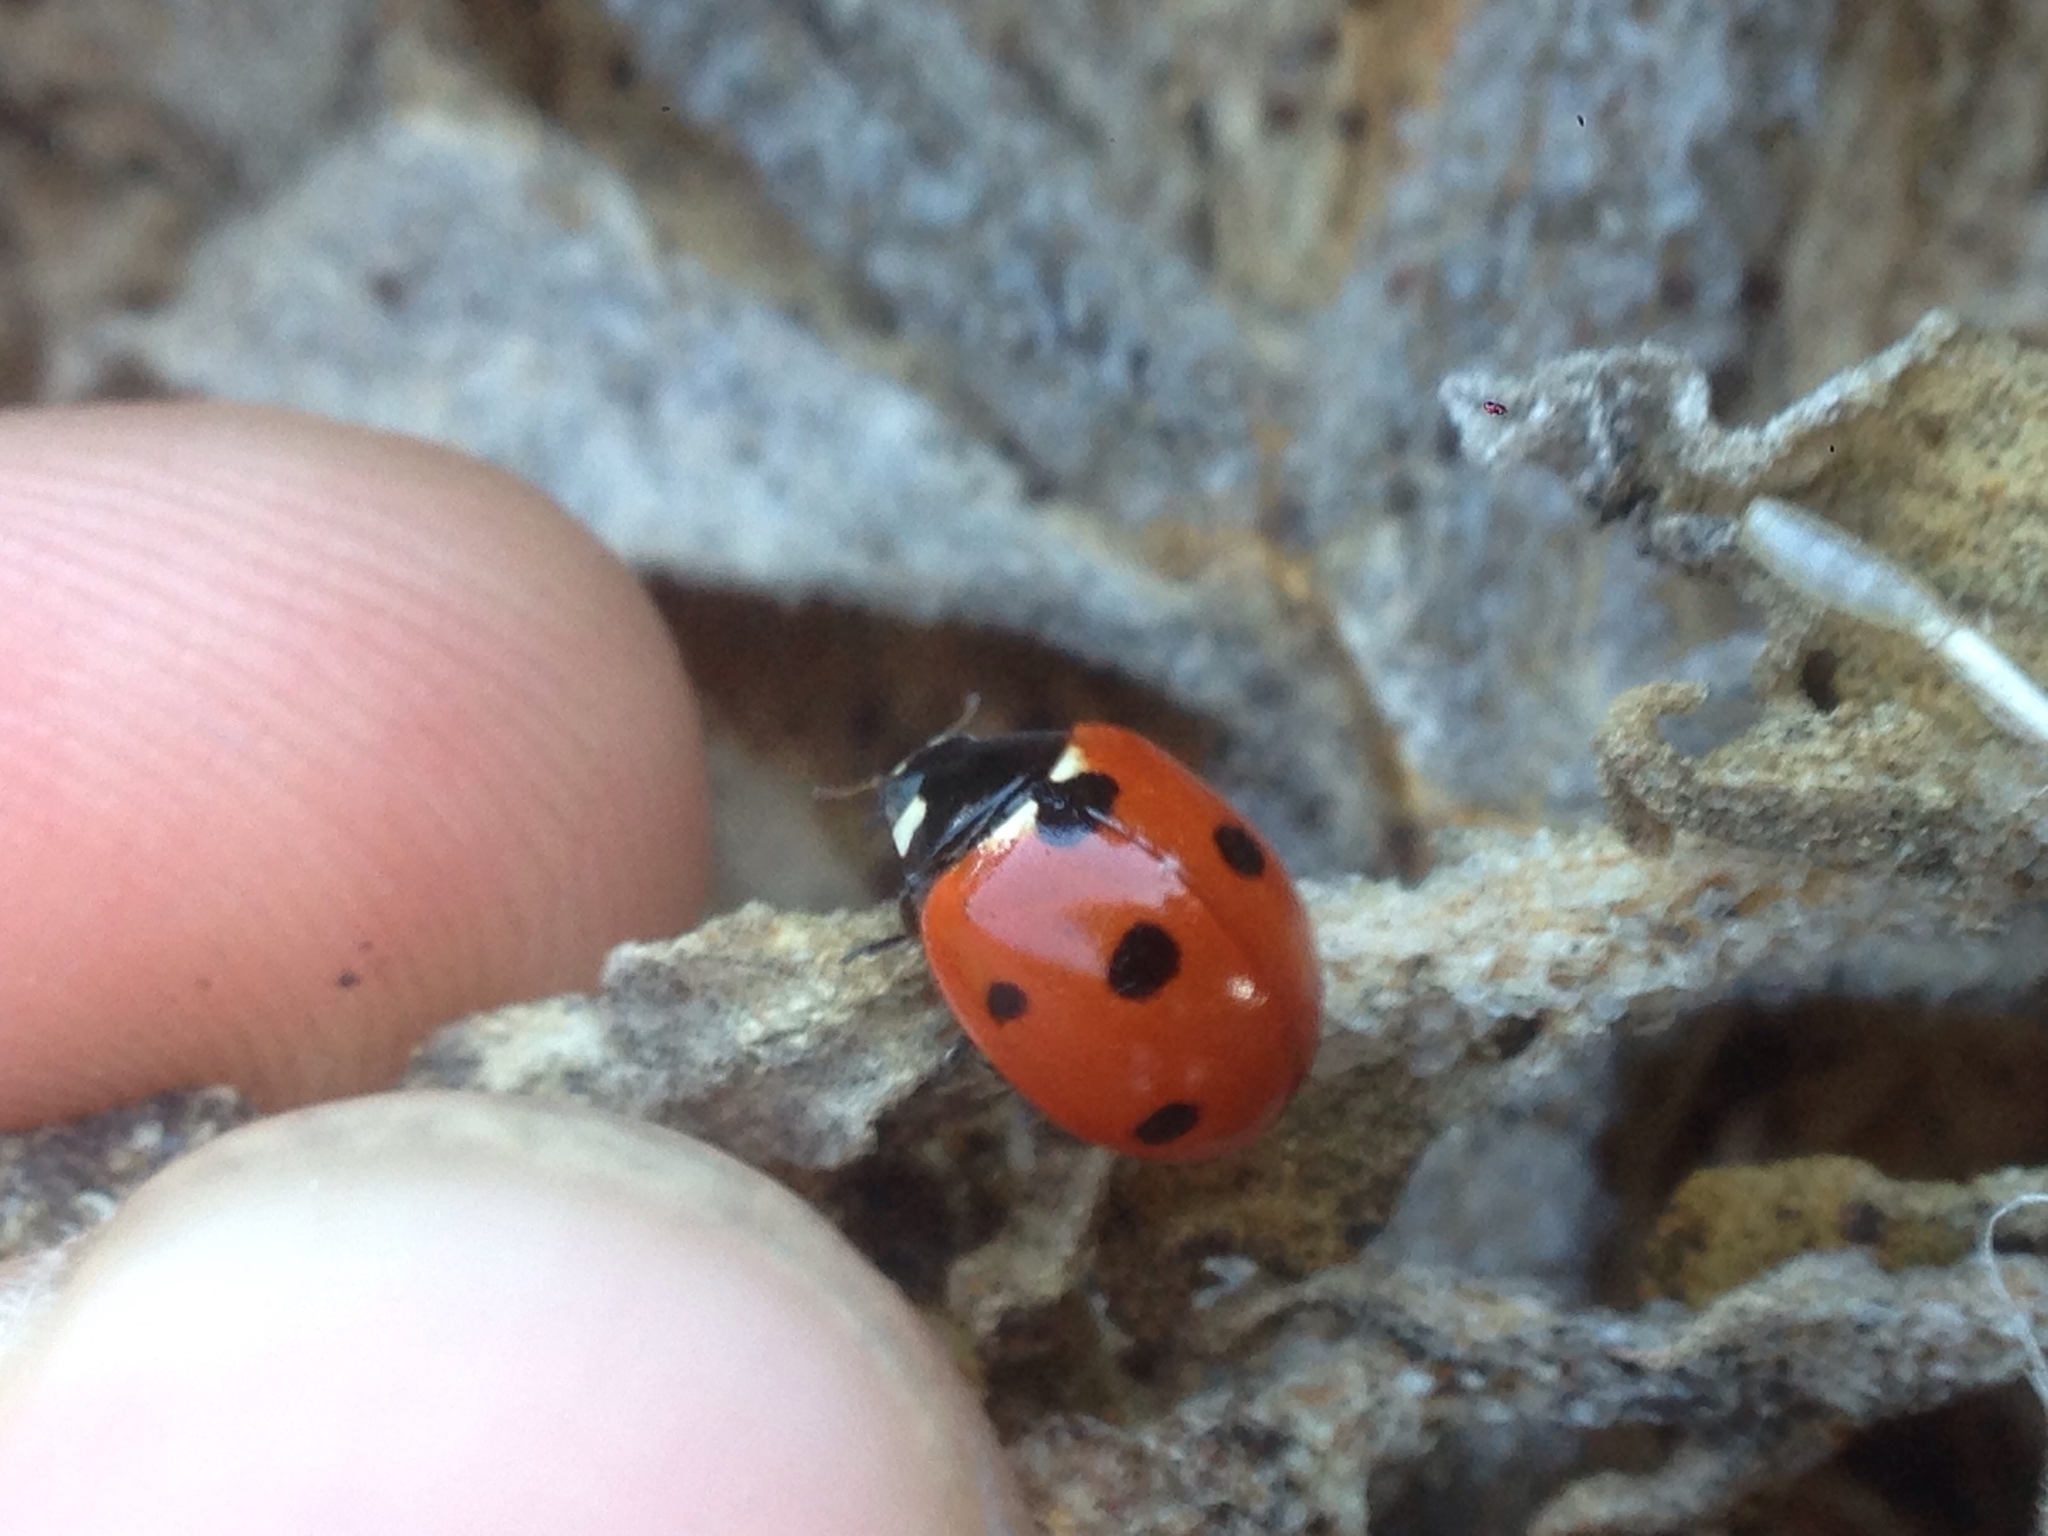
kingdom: Animalia
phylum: Arthropoda
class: Insecta
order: Coleoptera
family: Coccinellidae
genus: Coccinella
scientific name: Coccinella septempunctata
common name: Sevenspotted lady beetle
